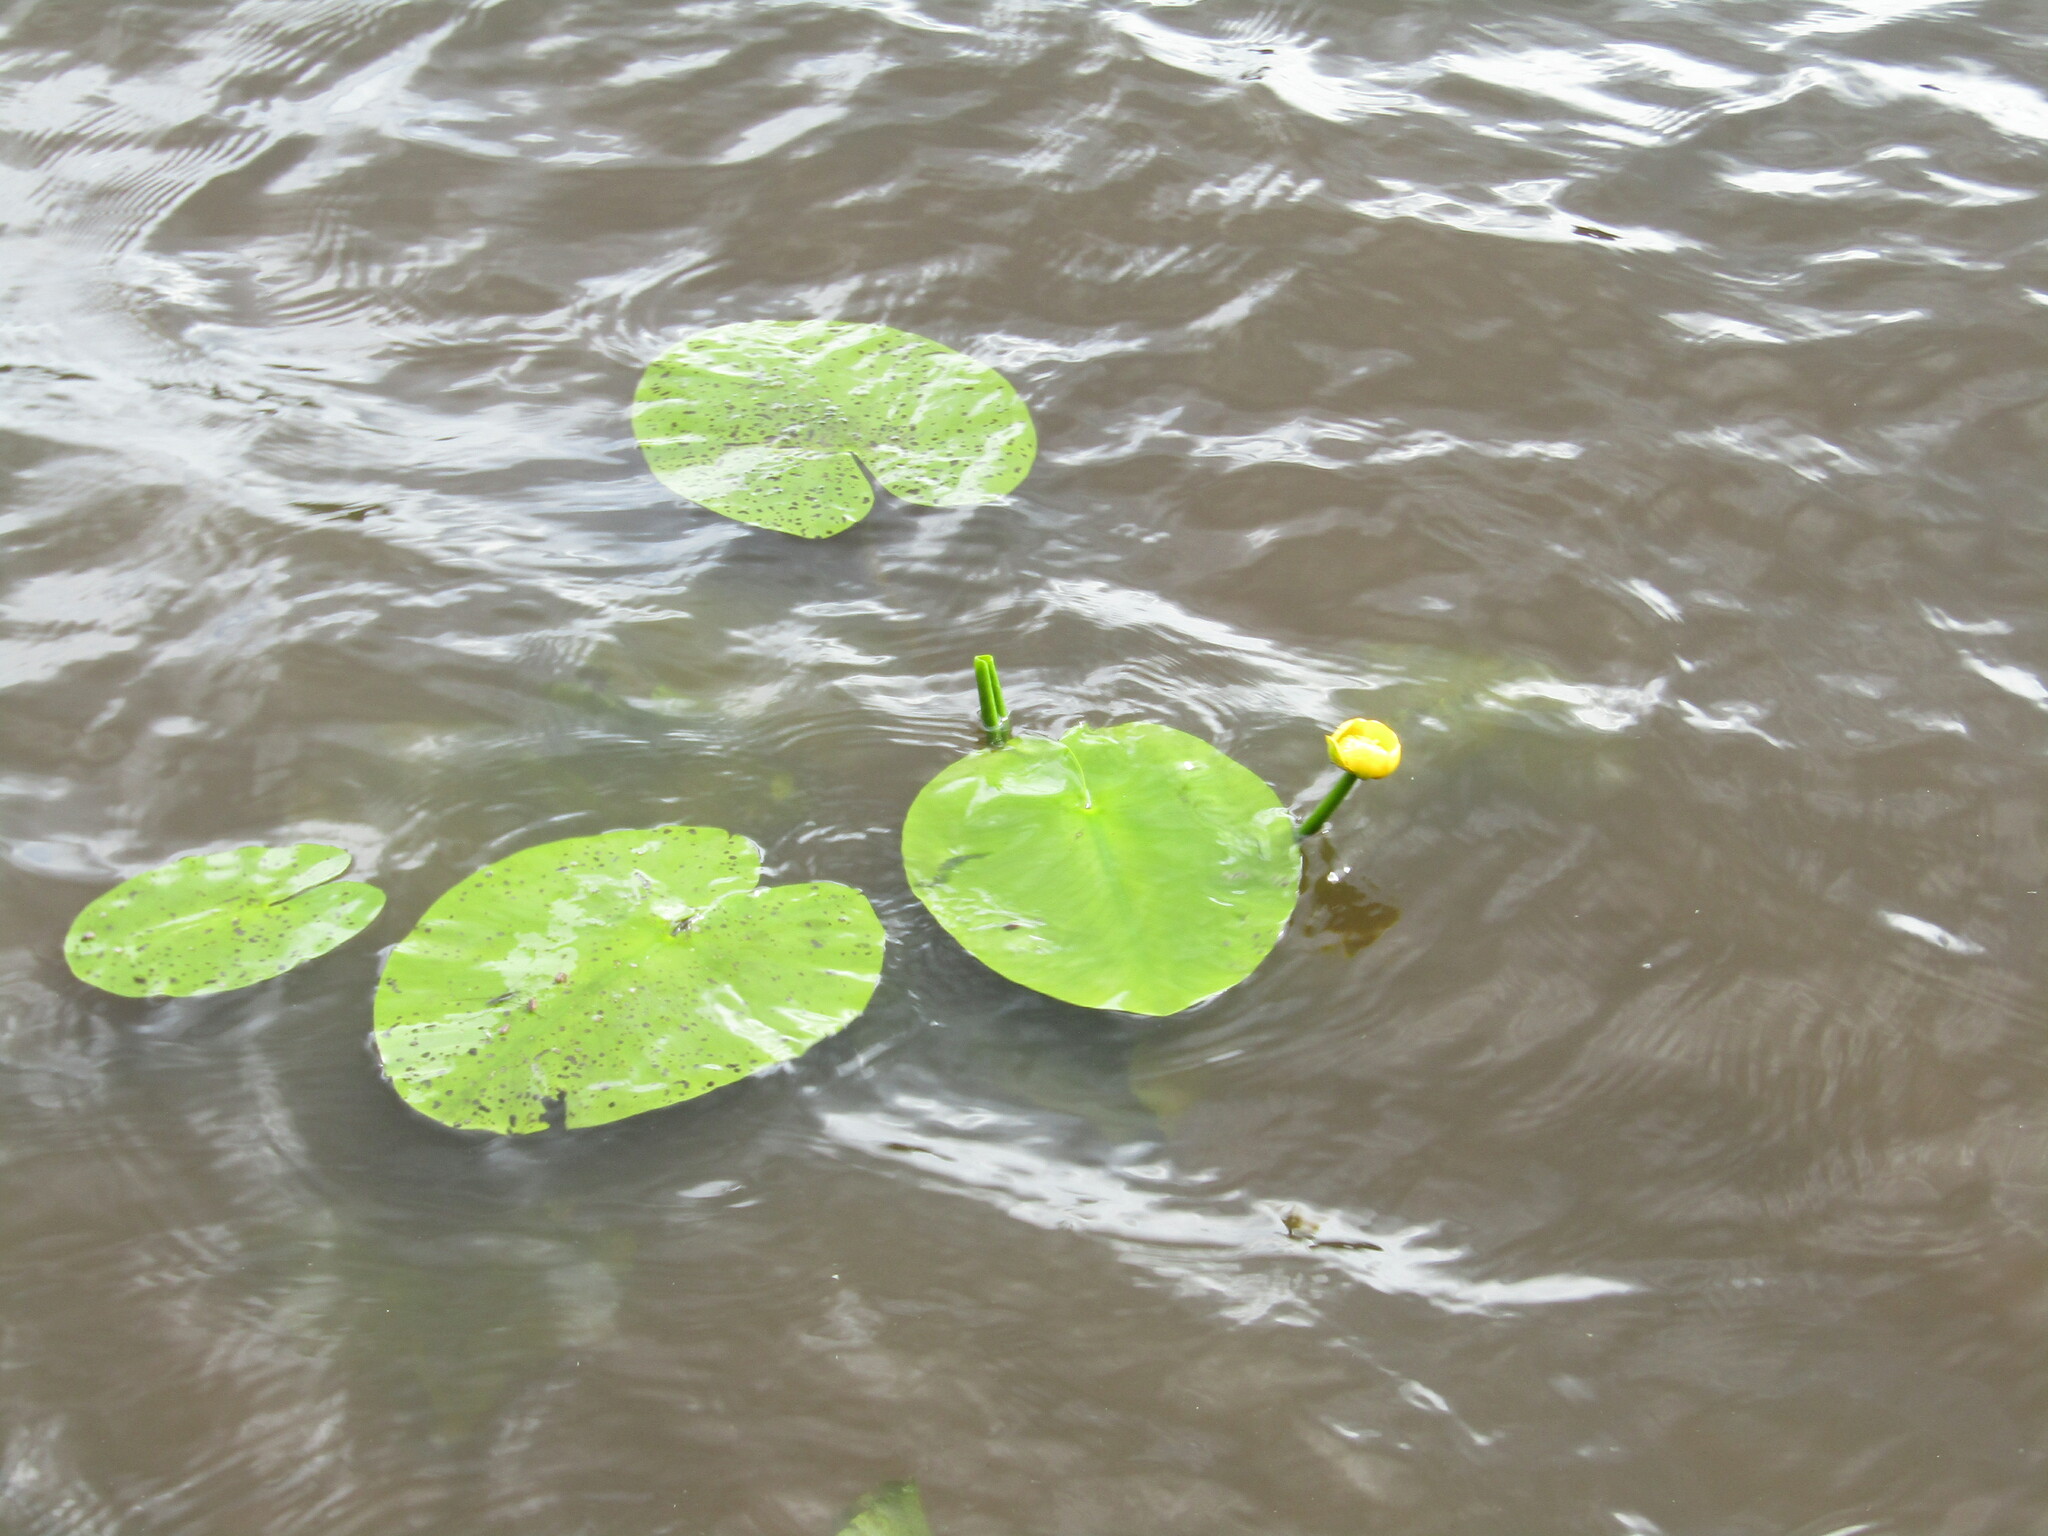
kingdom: Plantae
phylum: Tracheophyta
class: Magnoliopsida
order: Nymphaeales
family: Nymphaeaceae
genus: Nuphar
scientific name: Nuphar lutea
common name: Yellow water-lily
